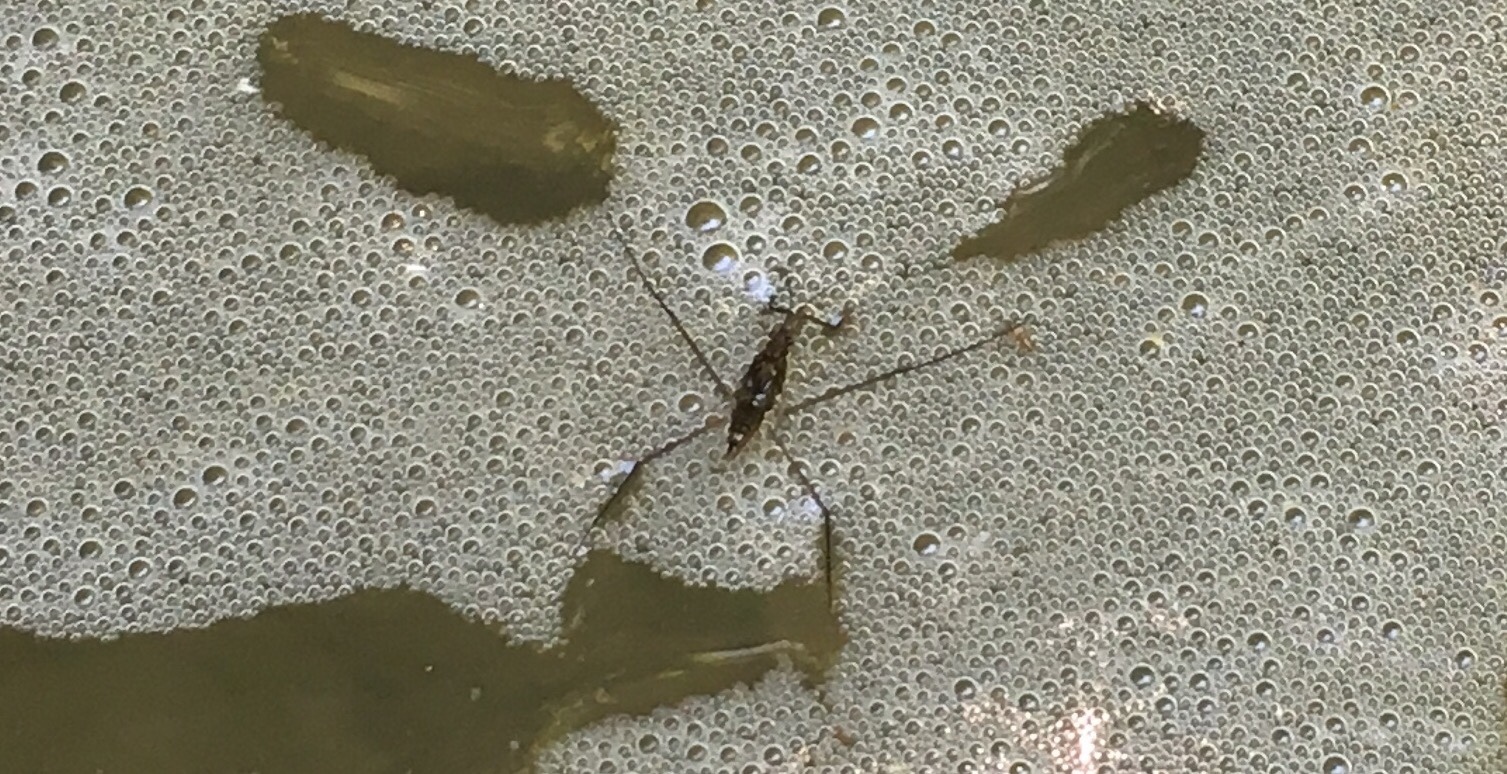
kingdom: Animalia
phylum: Arthropoda
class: Insecta
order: Hemiptera
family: Gerridae
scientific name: Gerridae
